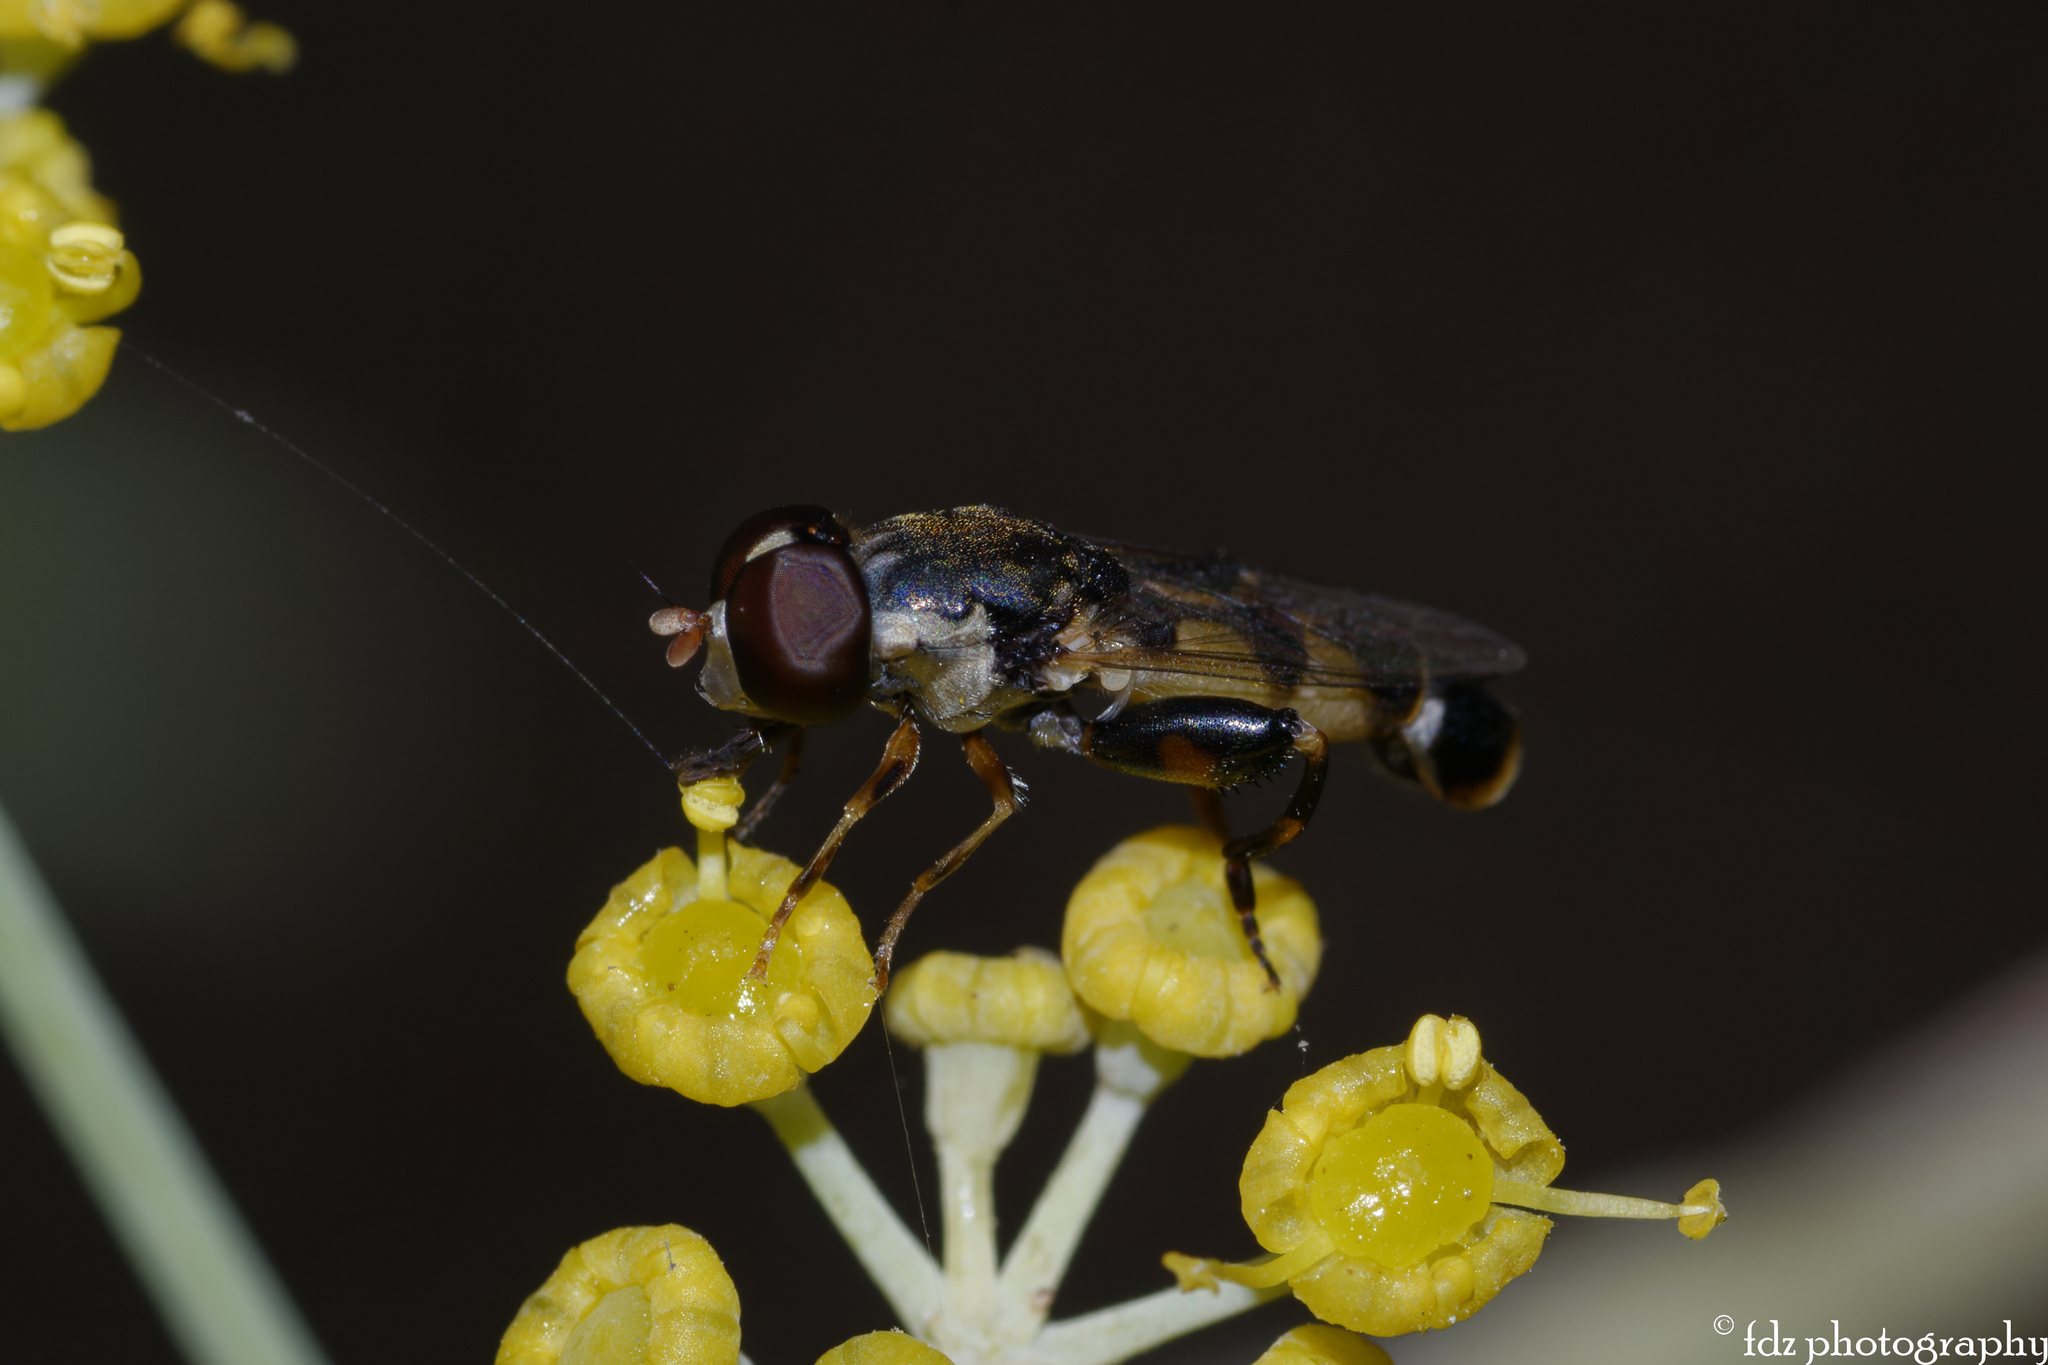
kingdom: Animalia
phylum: Arthropoda
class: Insecta
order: Diptera
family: Syrphidae
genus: Syritta
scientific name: Syritta pipiens
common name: Hover fly
